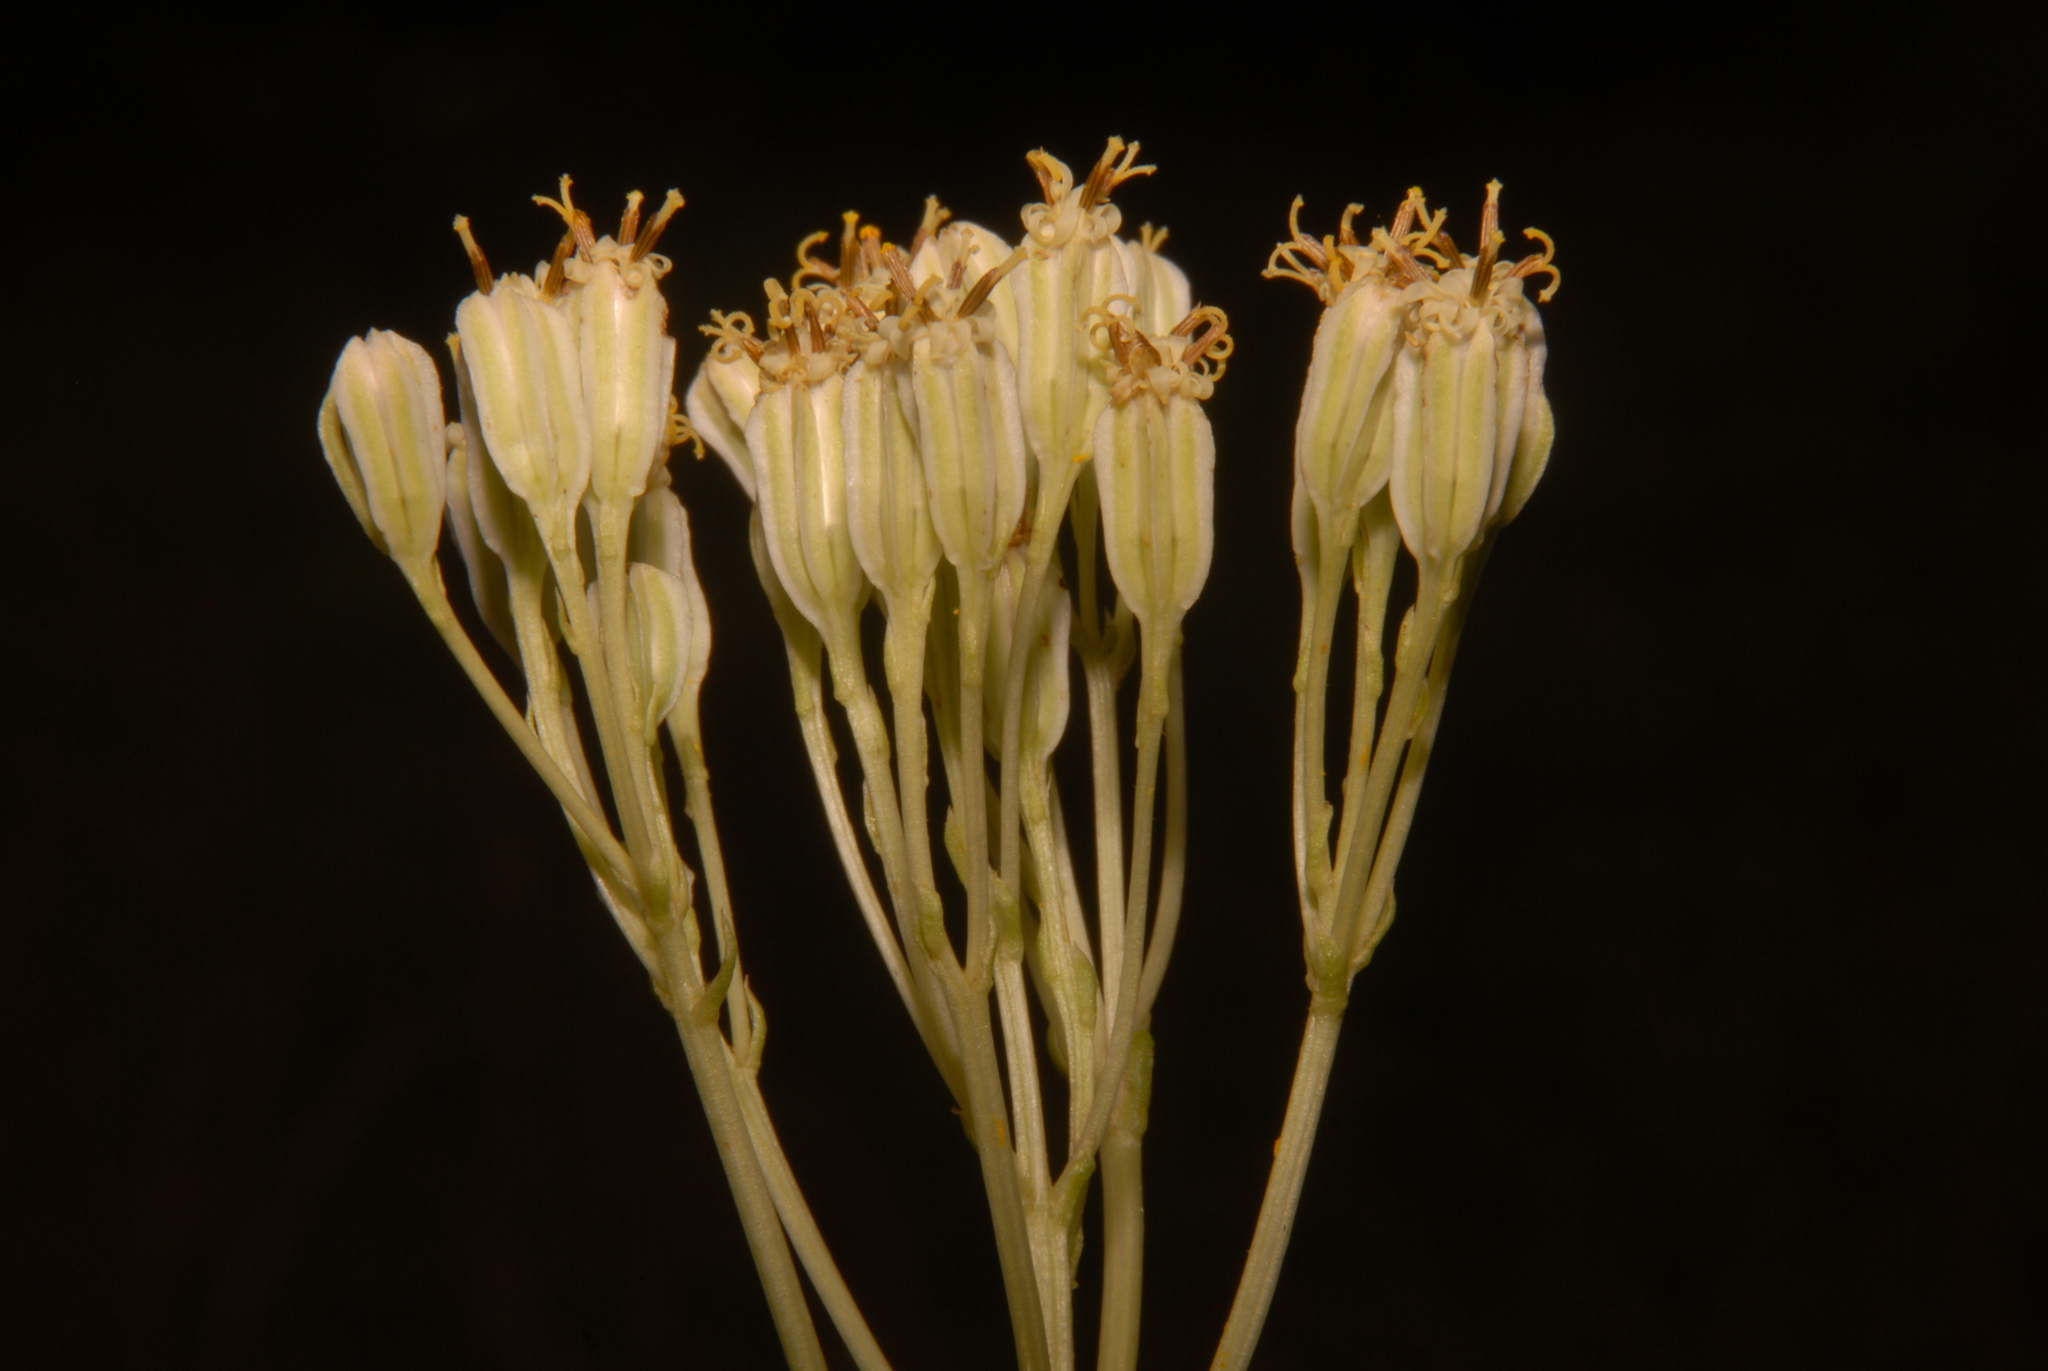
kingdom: Plantae
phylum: Tracheophyta
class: Magnoliopsida
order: Asterales
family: Asteraceae
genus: Arnoglossum
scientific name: Arnoglossum plantagineum
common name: Groove-stemmed indian-plantain
